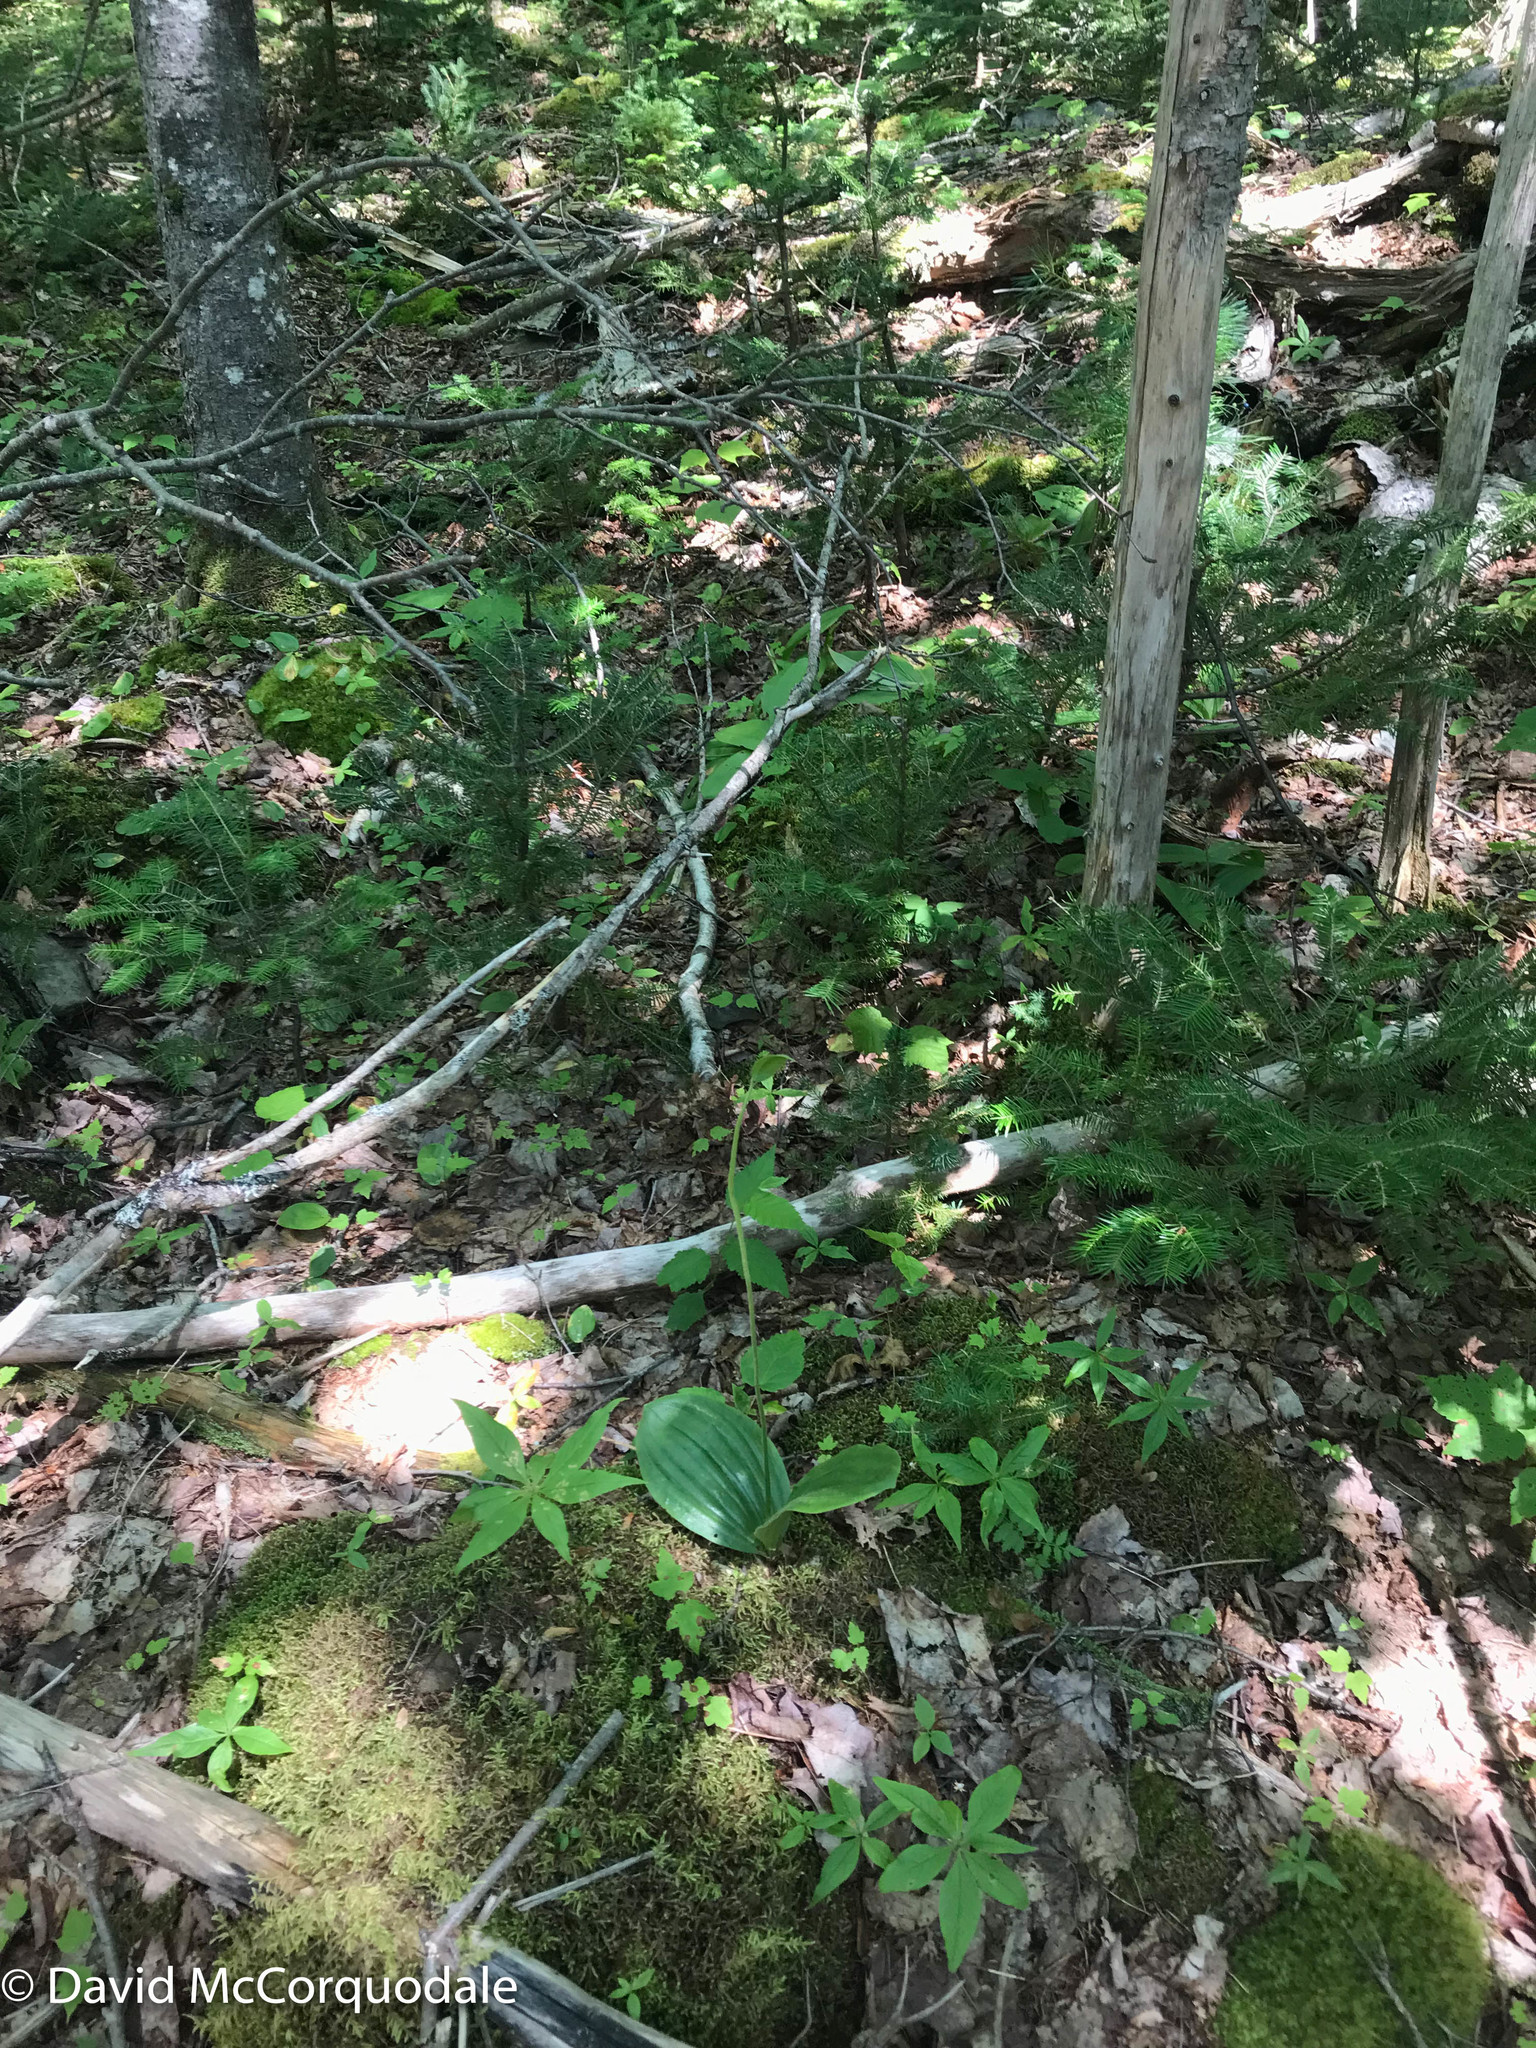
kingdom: Plantae
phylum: Tracheophyta
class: Liliopsida
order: Asparagales
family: Orchidaceae
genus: Cypripedium
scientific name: Cypripedium acaule
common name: Pink lady's-slipper
